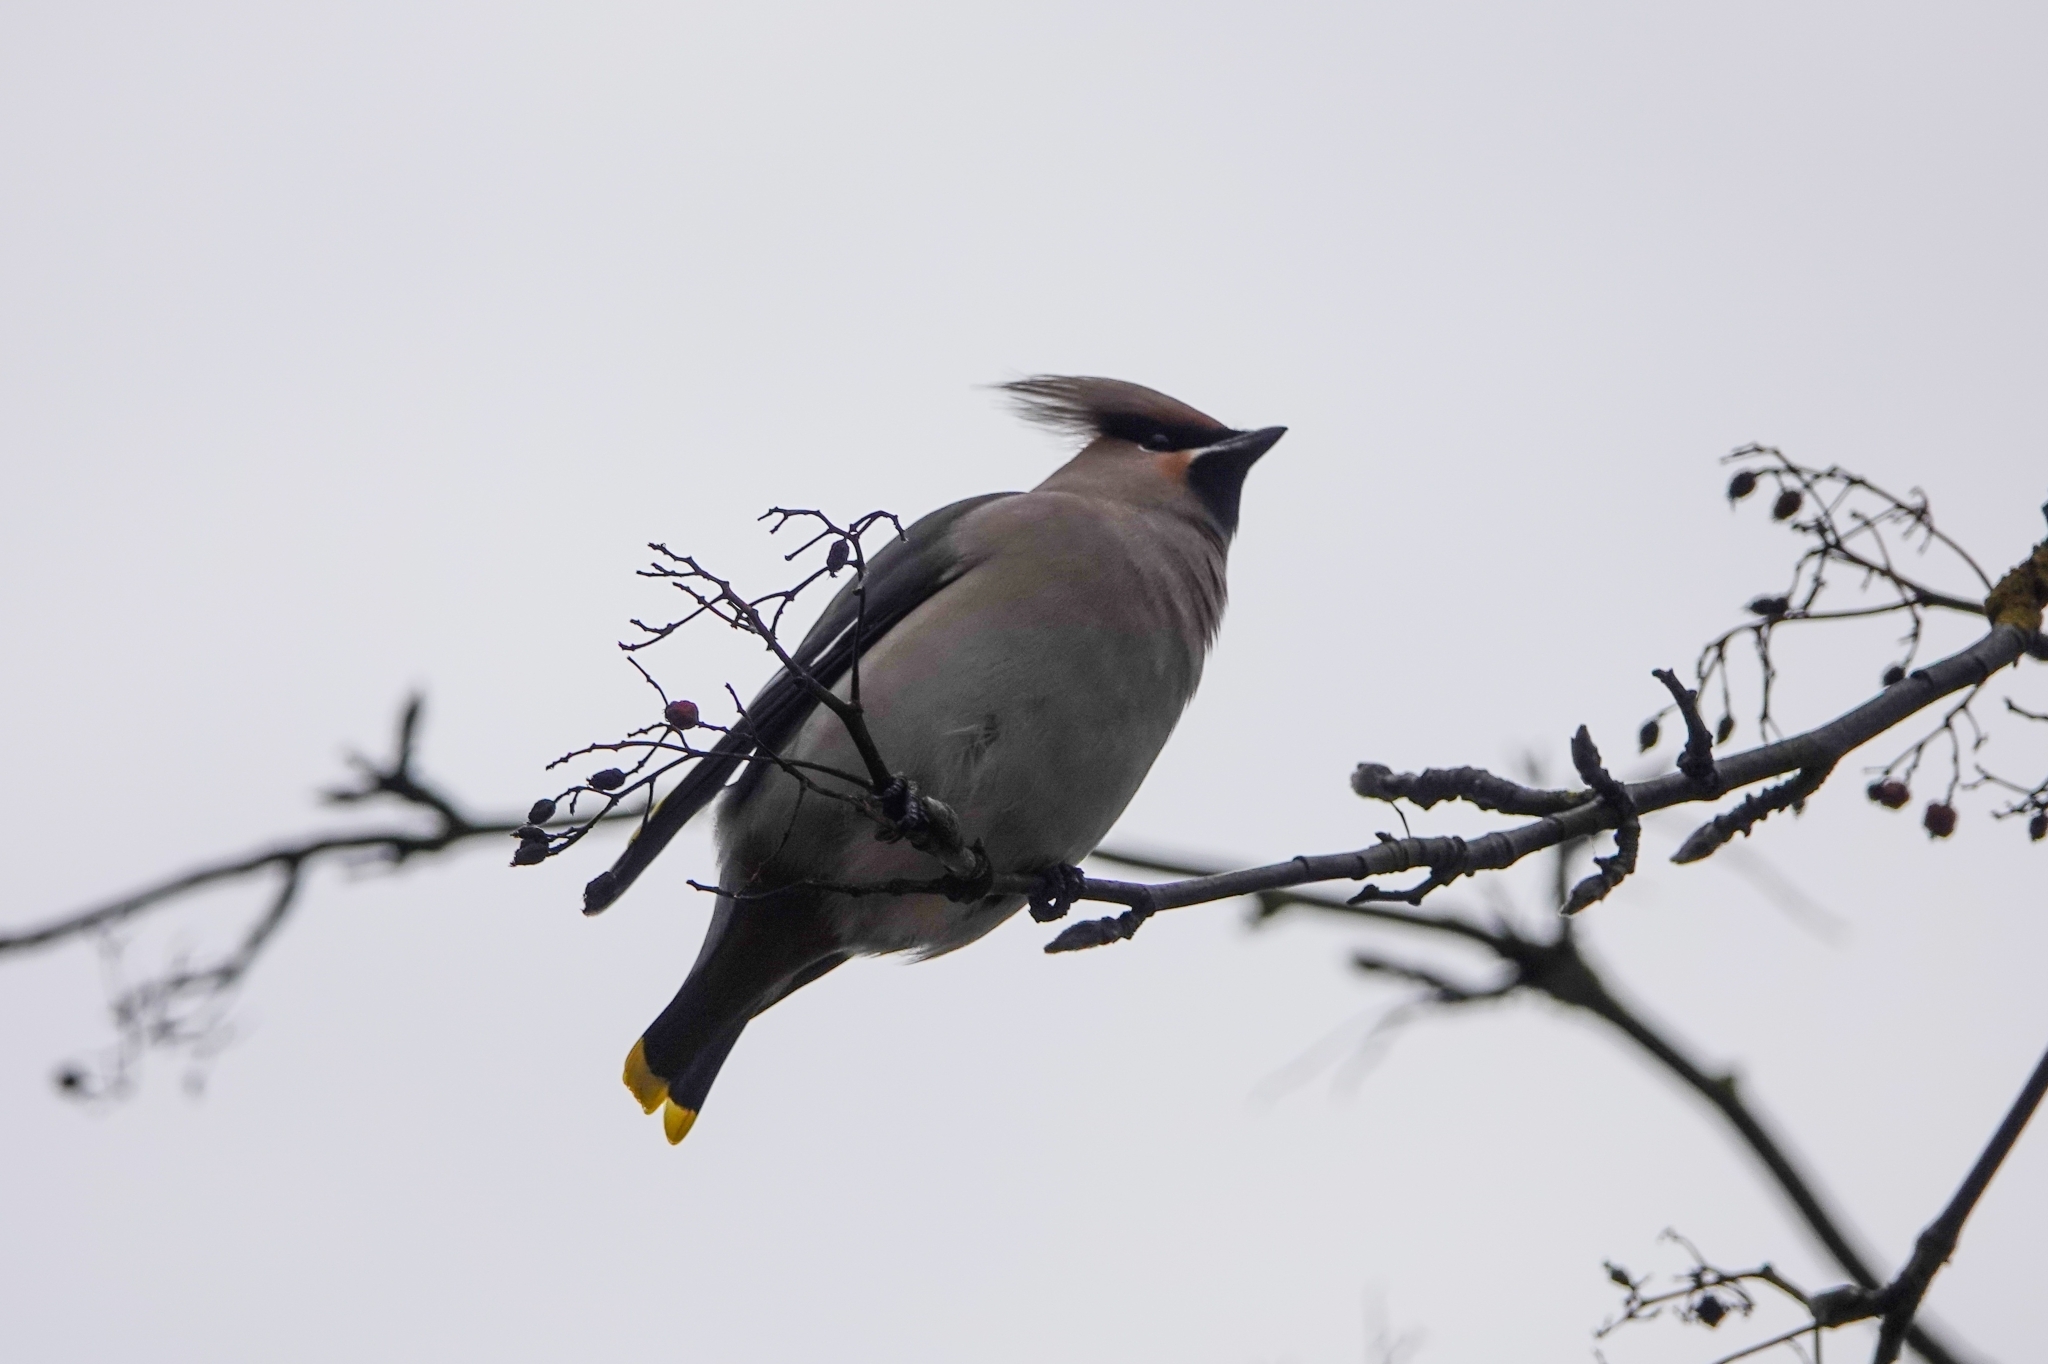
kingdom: Animalia
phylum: Chordata
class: Aves
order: Passeriformes
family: Bombycillidae
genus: Bombycilla
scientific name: Bombycilla garrulus
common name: Bohemian waxwing
